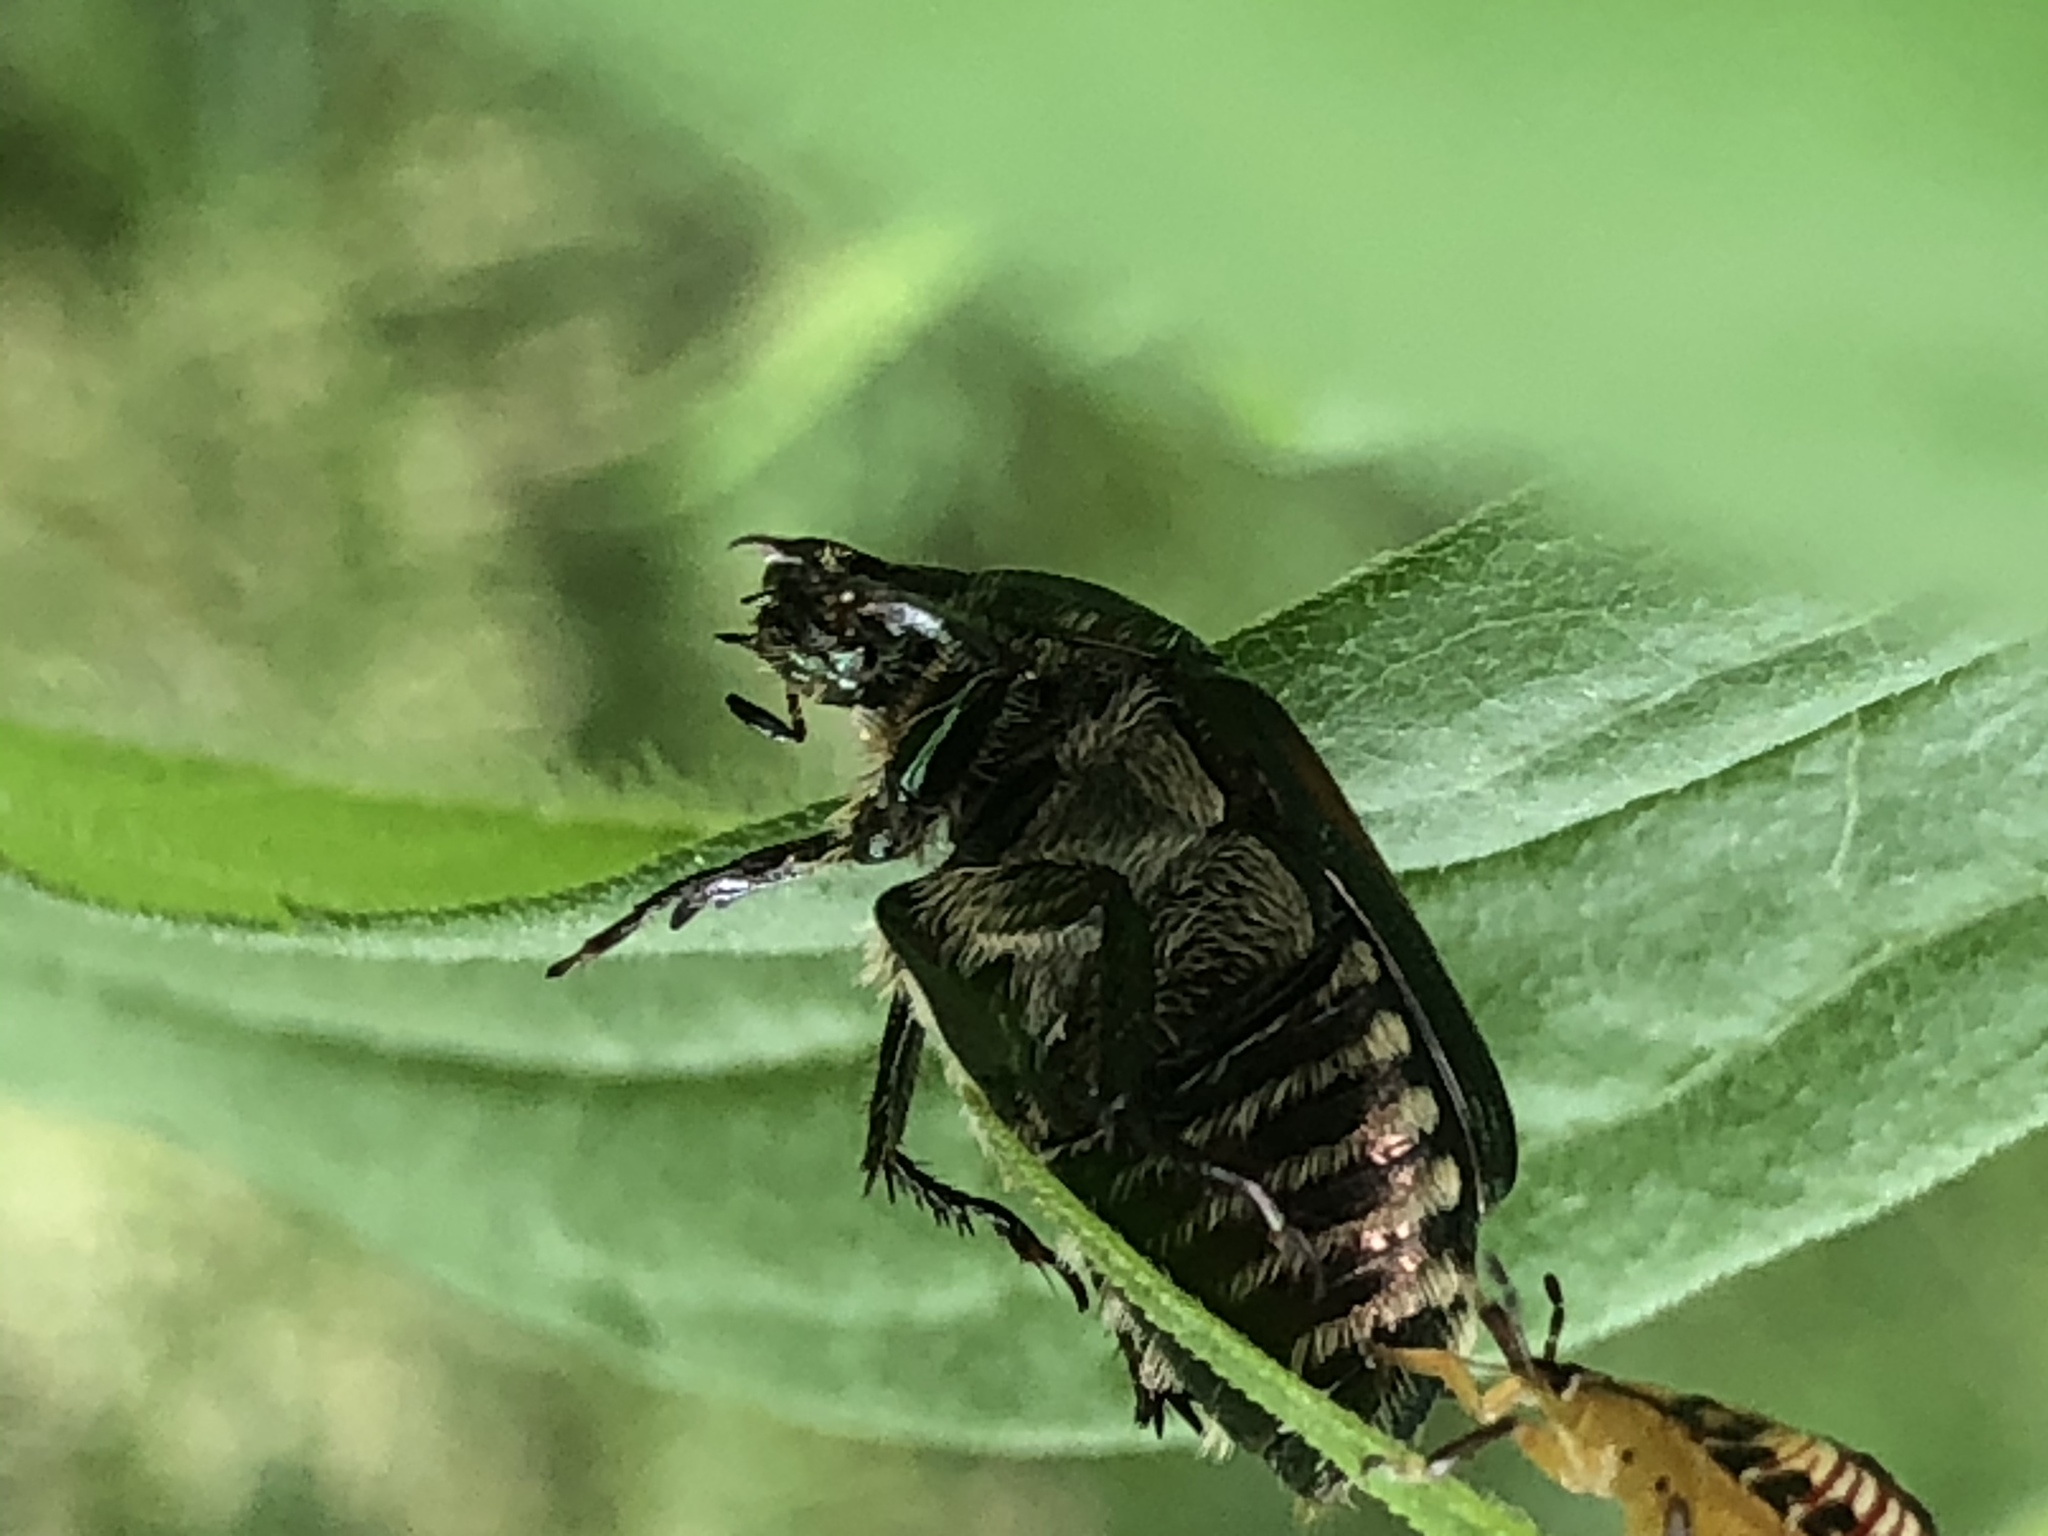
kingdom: Animalia
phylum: Arthropoda
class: Insecta
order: Coleoptera
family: Scarabaeidae
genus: Popillia
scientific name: Popillia japonica
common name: Japanese beetle
